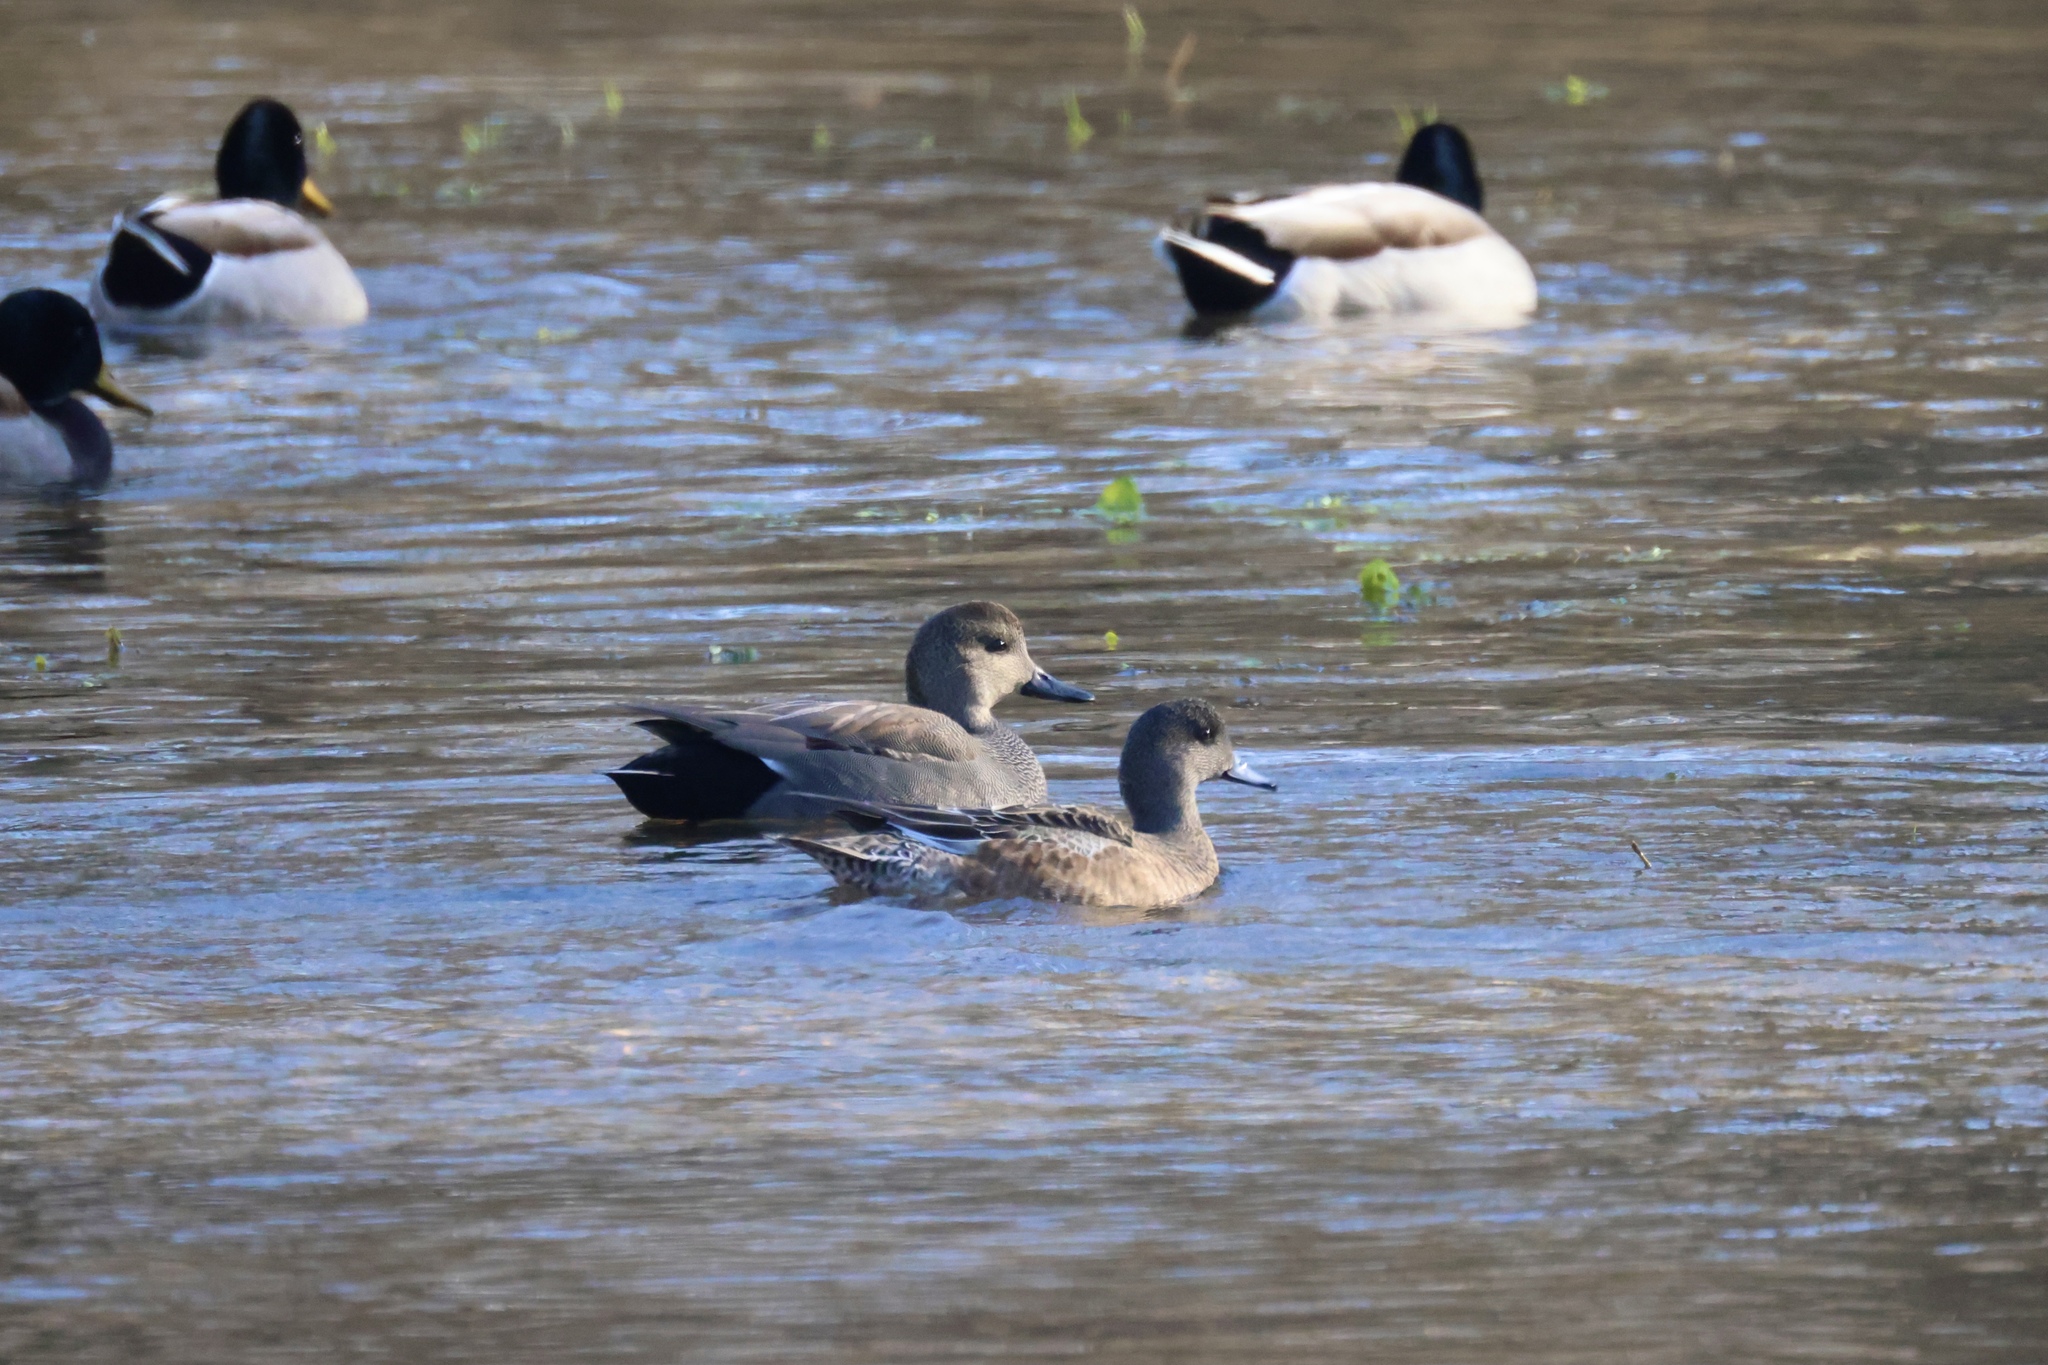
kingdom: Animalia
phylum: Chordata
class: Aves
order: Anseriformes
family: Anatidae
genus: Mareca
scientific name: Mareca strepera
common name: Gadwall
